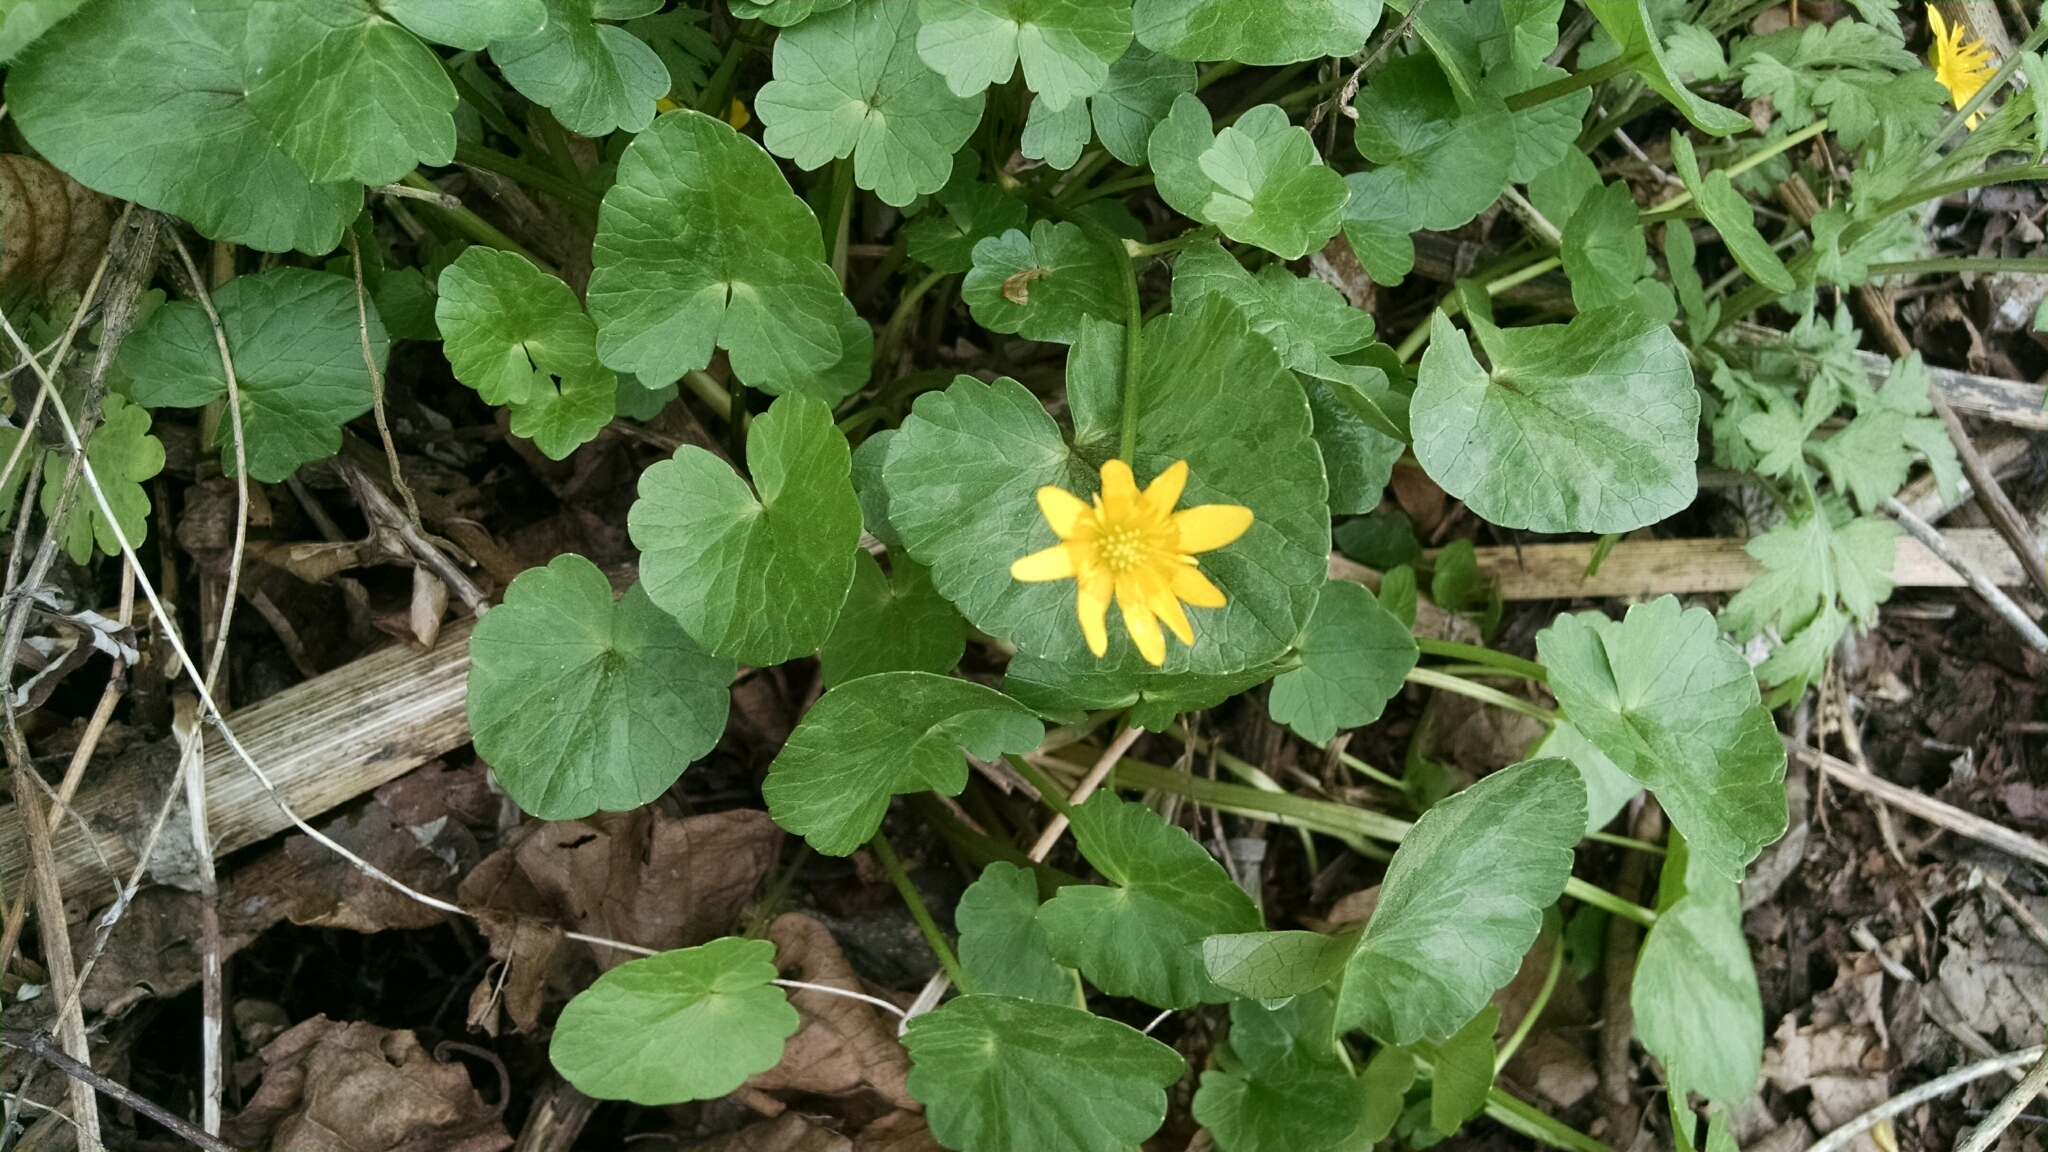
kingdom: Plantae
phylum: Tracheophyta
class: Magnoliopsida
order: Ranunculales
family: Ranunculaceae
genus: Ficaria
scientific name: Ficaria verna
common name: Lesser celandine
